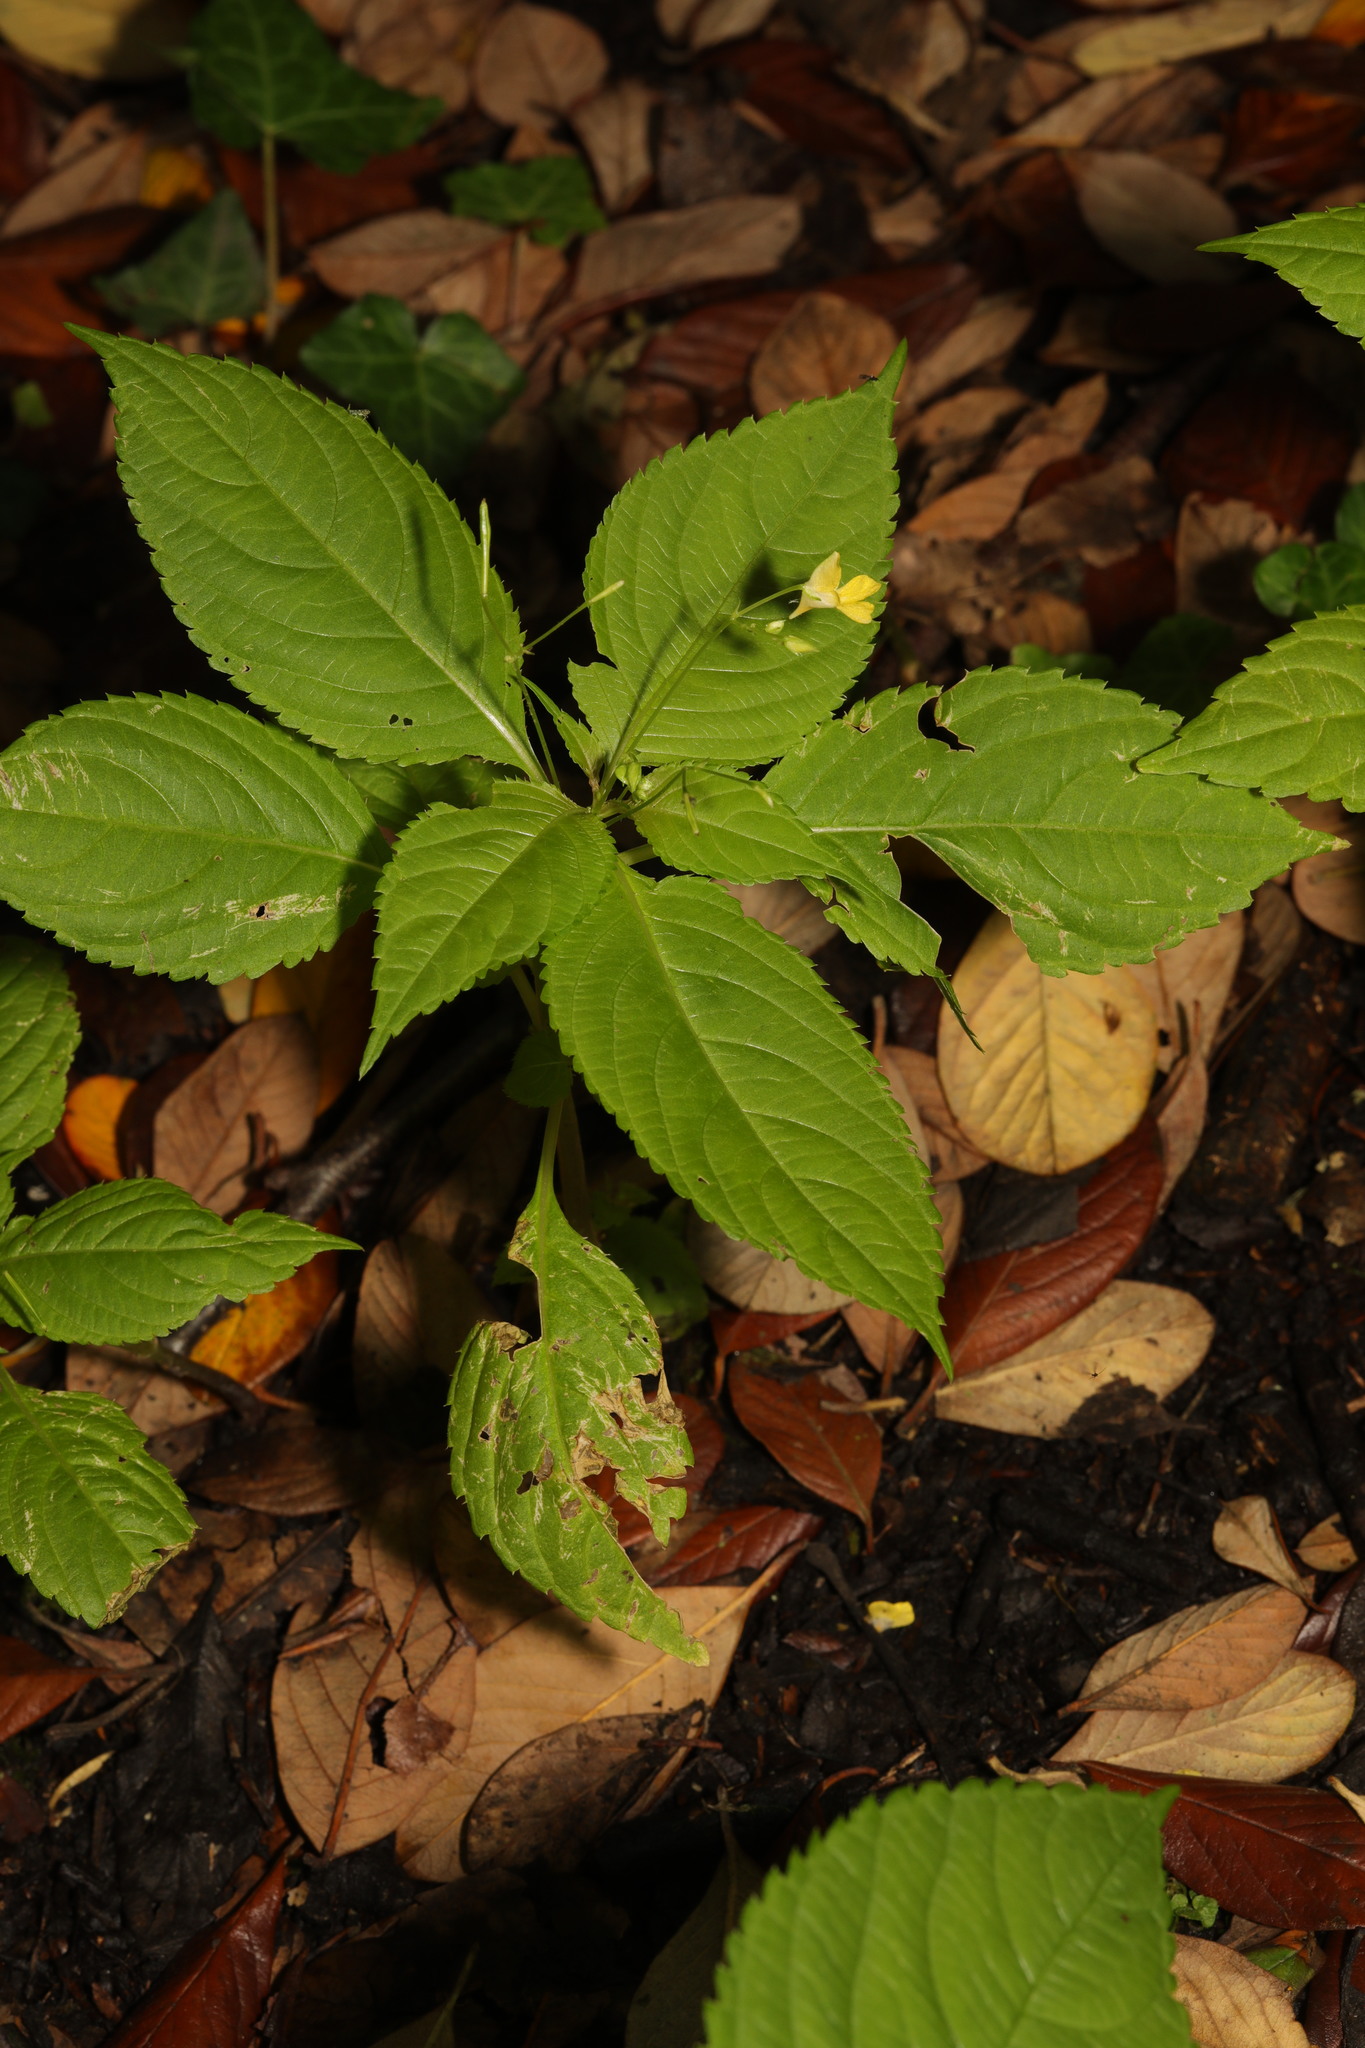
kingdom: Plantae
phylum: Tracheophyta
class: Magnoliopsida
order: Ericales
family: Balsaminaceae
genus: Impatiens
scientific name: Impatiens parviflora
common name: Small balsam
